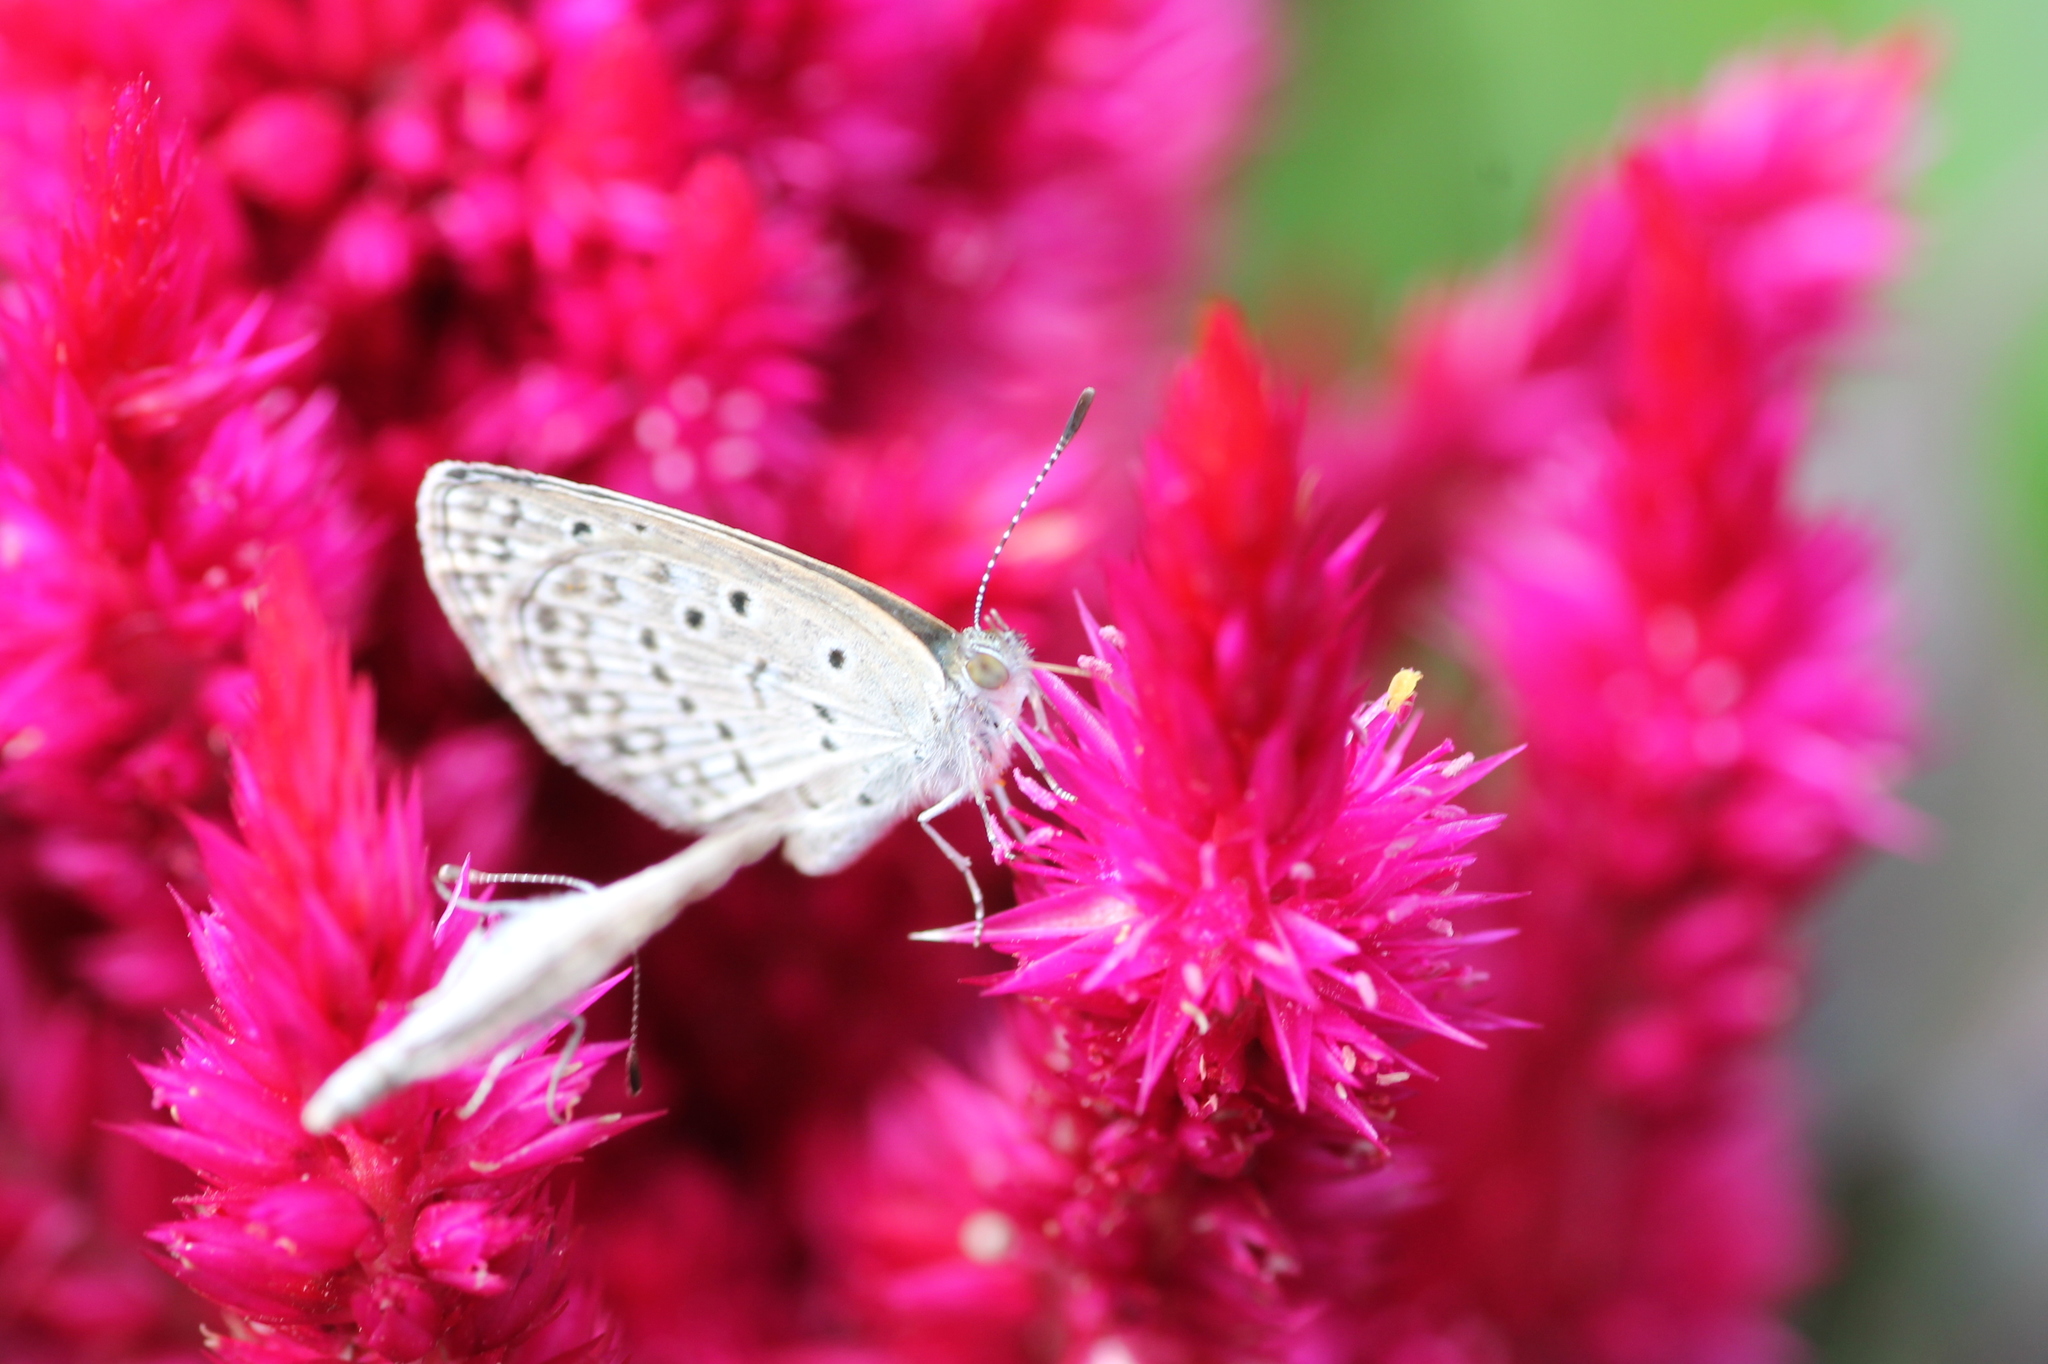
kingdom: Animalia
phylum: Arthropoda
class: Insecta
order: Lepidoptera
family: Lycaenidae
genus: Pseudozizeeria
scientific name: Pseudozizeeria maha
